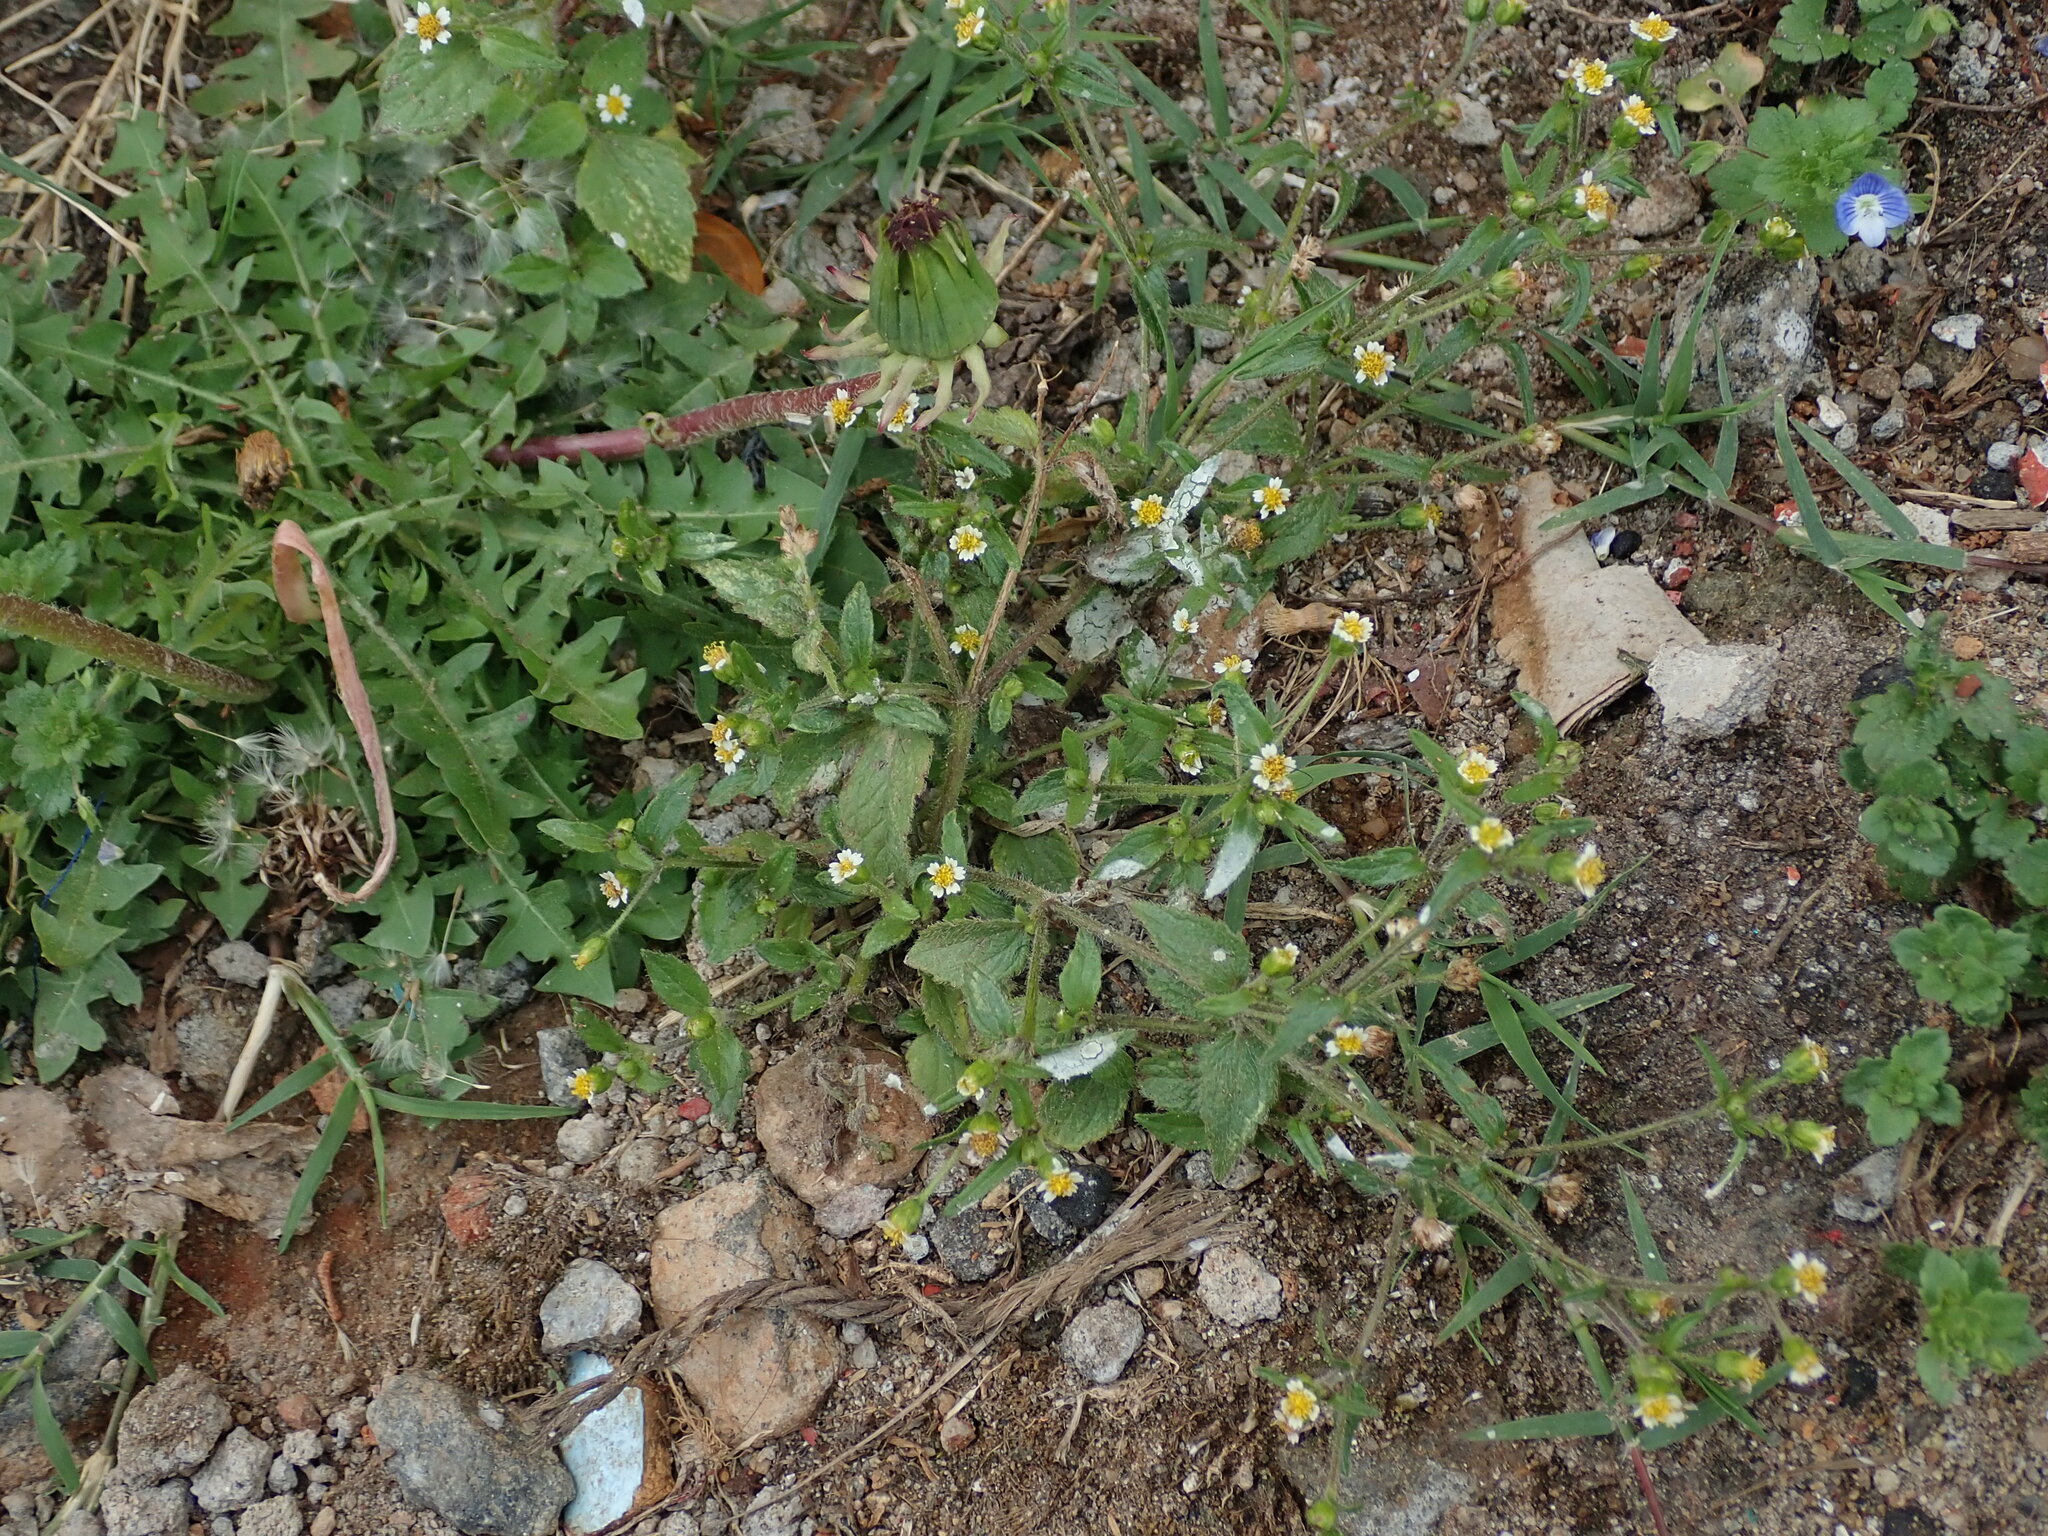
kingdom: Plantae
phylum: Tracheophyta
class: Magnoliopsida
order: Asterales
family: Asteraceae
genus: Galinsoga
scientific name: Galinsoga quadriradiata
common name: Shaggy soldier
